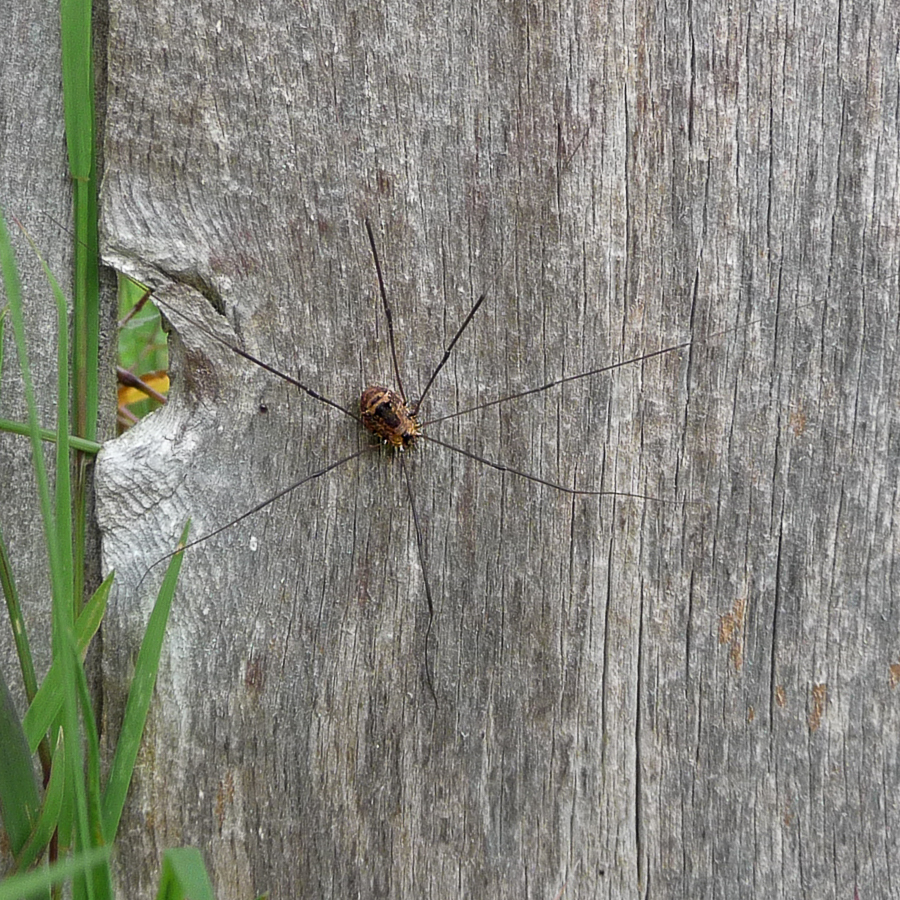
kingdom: Animalia
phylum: Arthropoda
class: Arachnida
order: Opiliones
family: Sclerosomatidae
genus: Leiobunum
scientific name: Leiobunum rotundum
